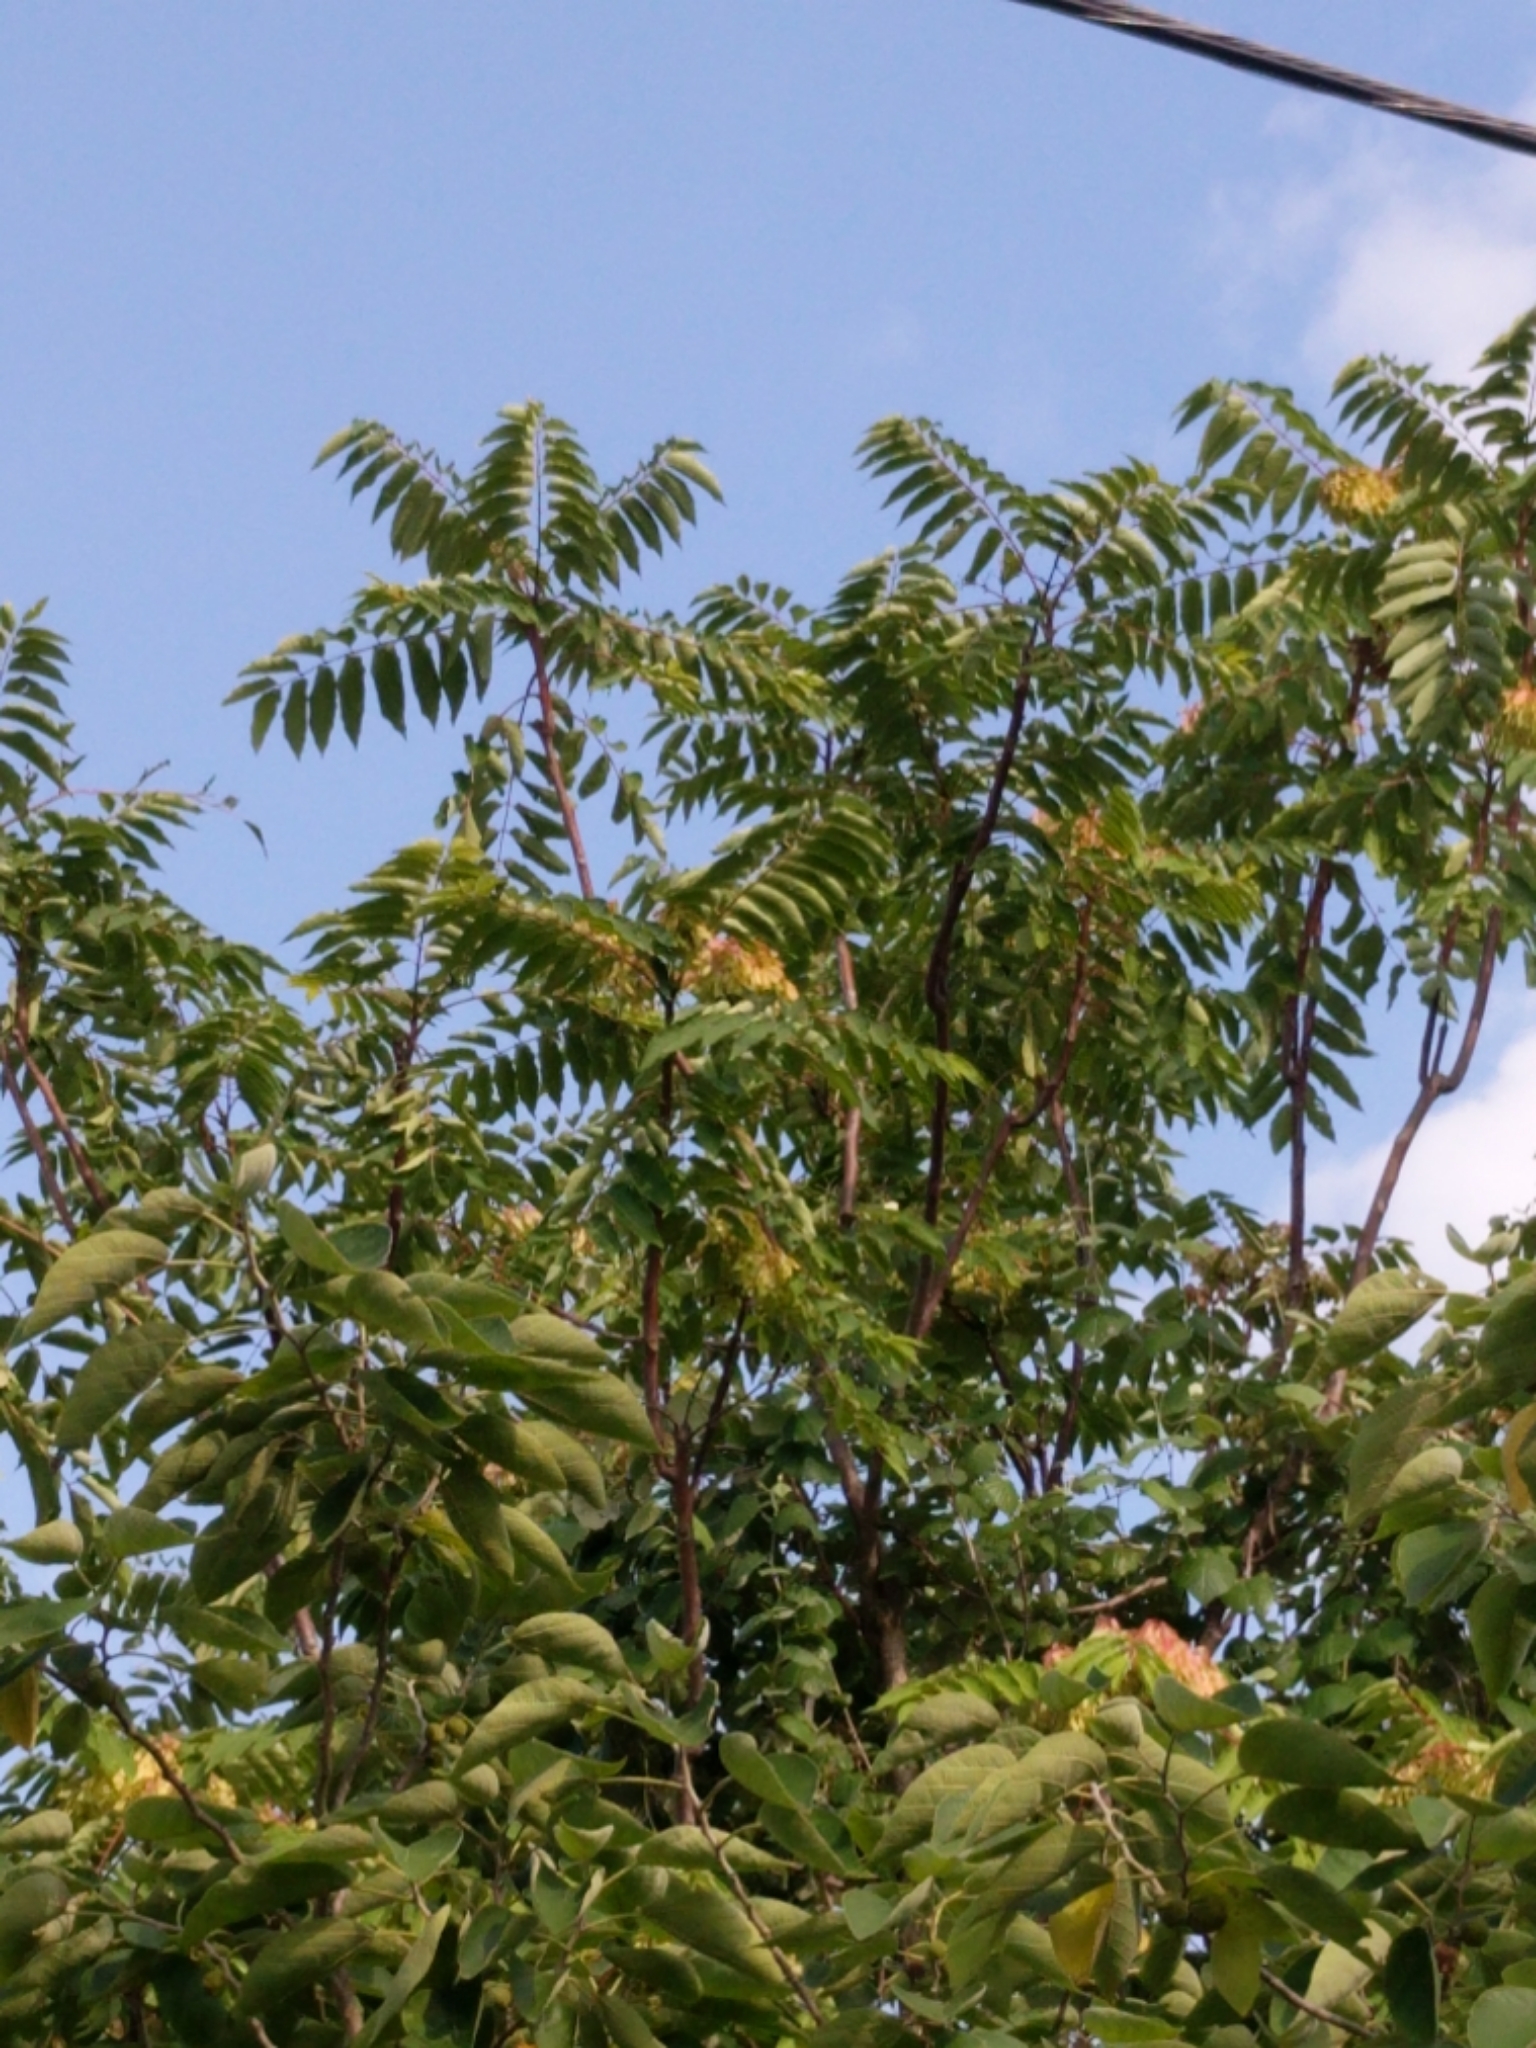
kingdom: Plantae
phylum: Tracheophyta
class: Magnoliopsida
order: Sapindales
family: Simaroubaceae
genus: Ailanthus
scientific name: Ailanthus altissima
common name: Tree-of-heaven
